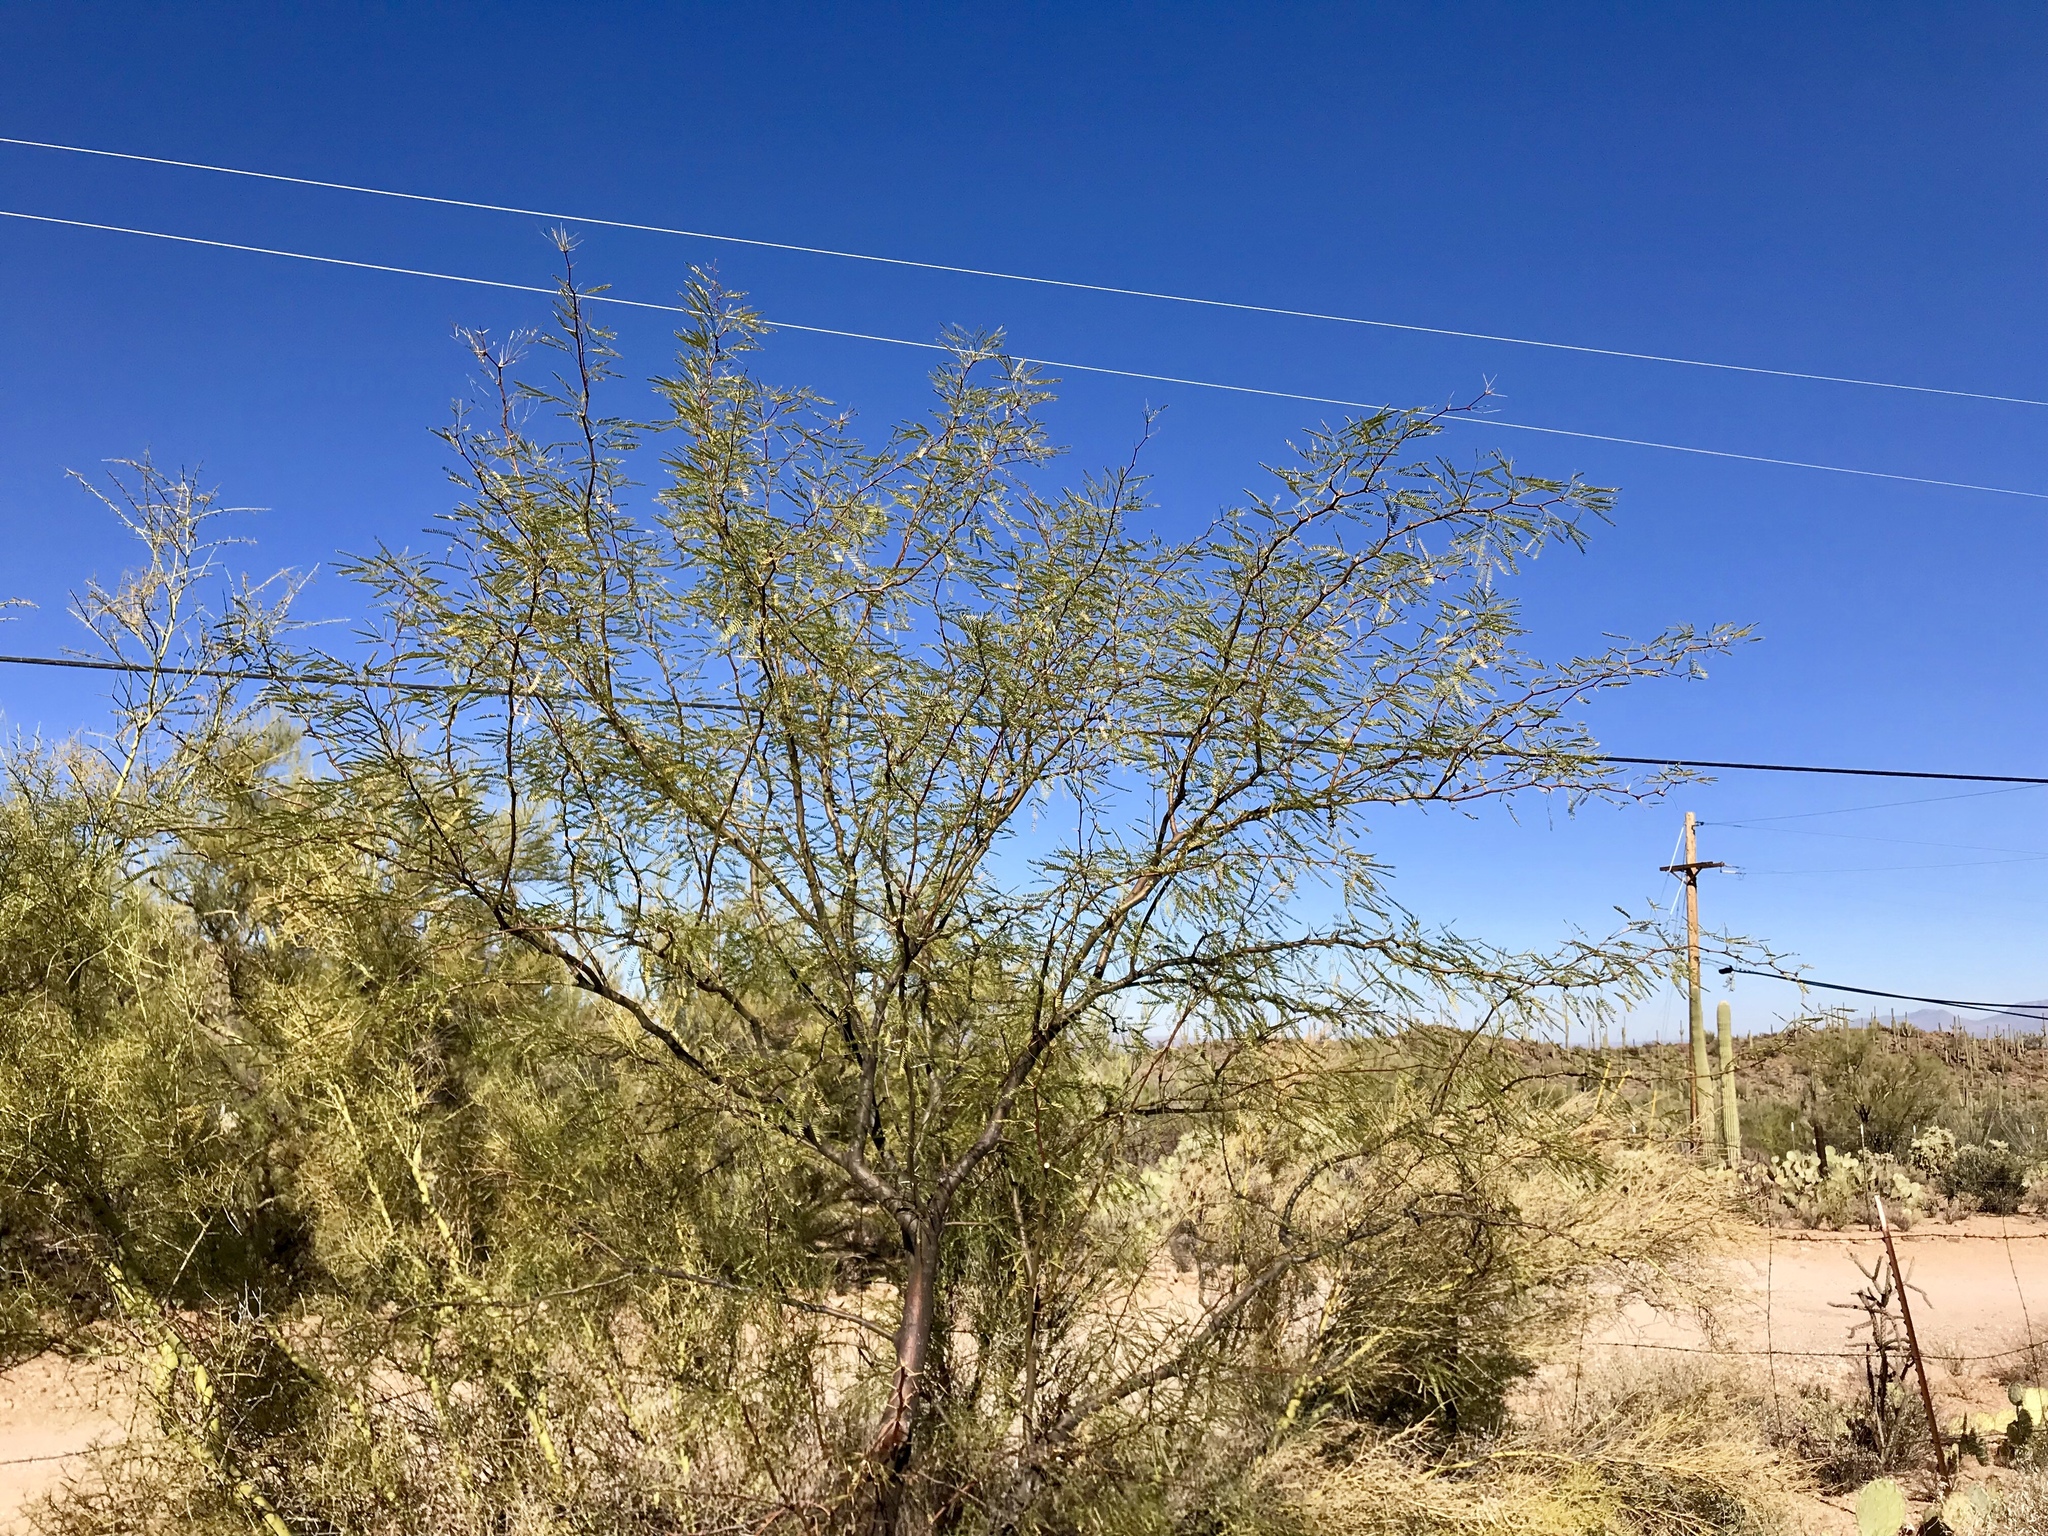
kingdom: Plantae
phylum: Tracheophyta
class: Magnoliopsida
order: Fabales
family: Fabaceae
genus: Prosopis
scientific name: Prosopis velutina
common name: Velvet mesquite
